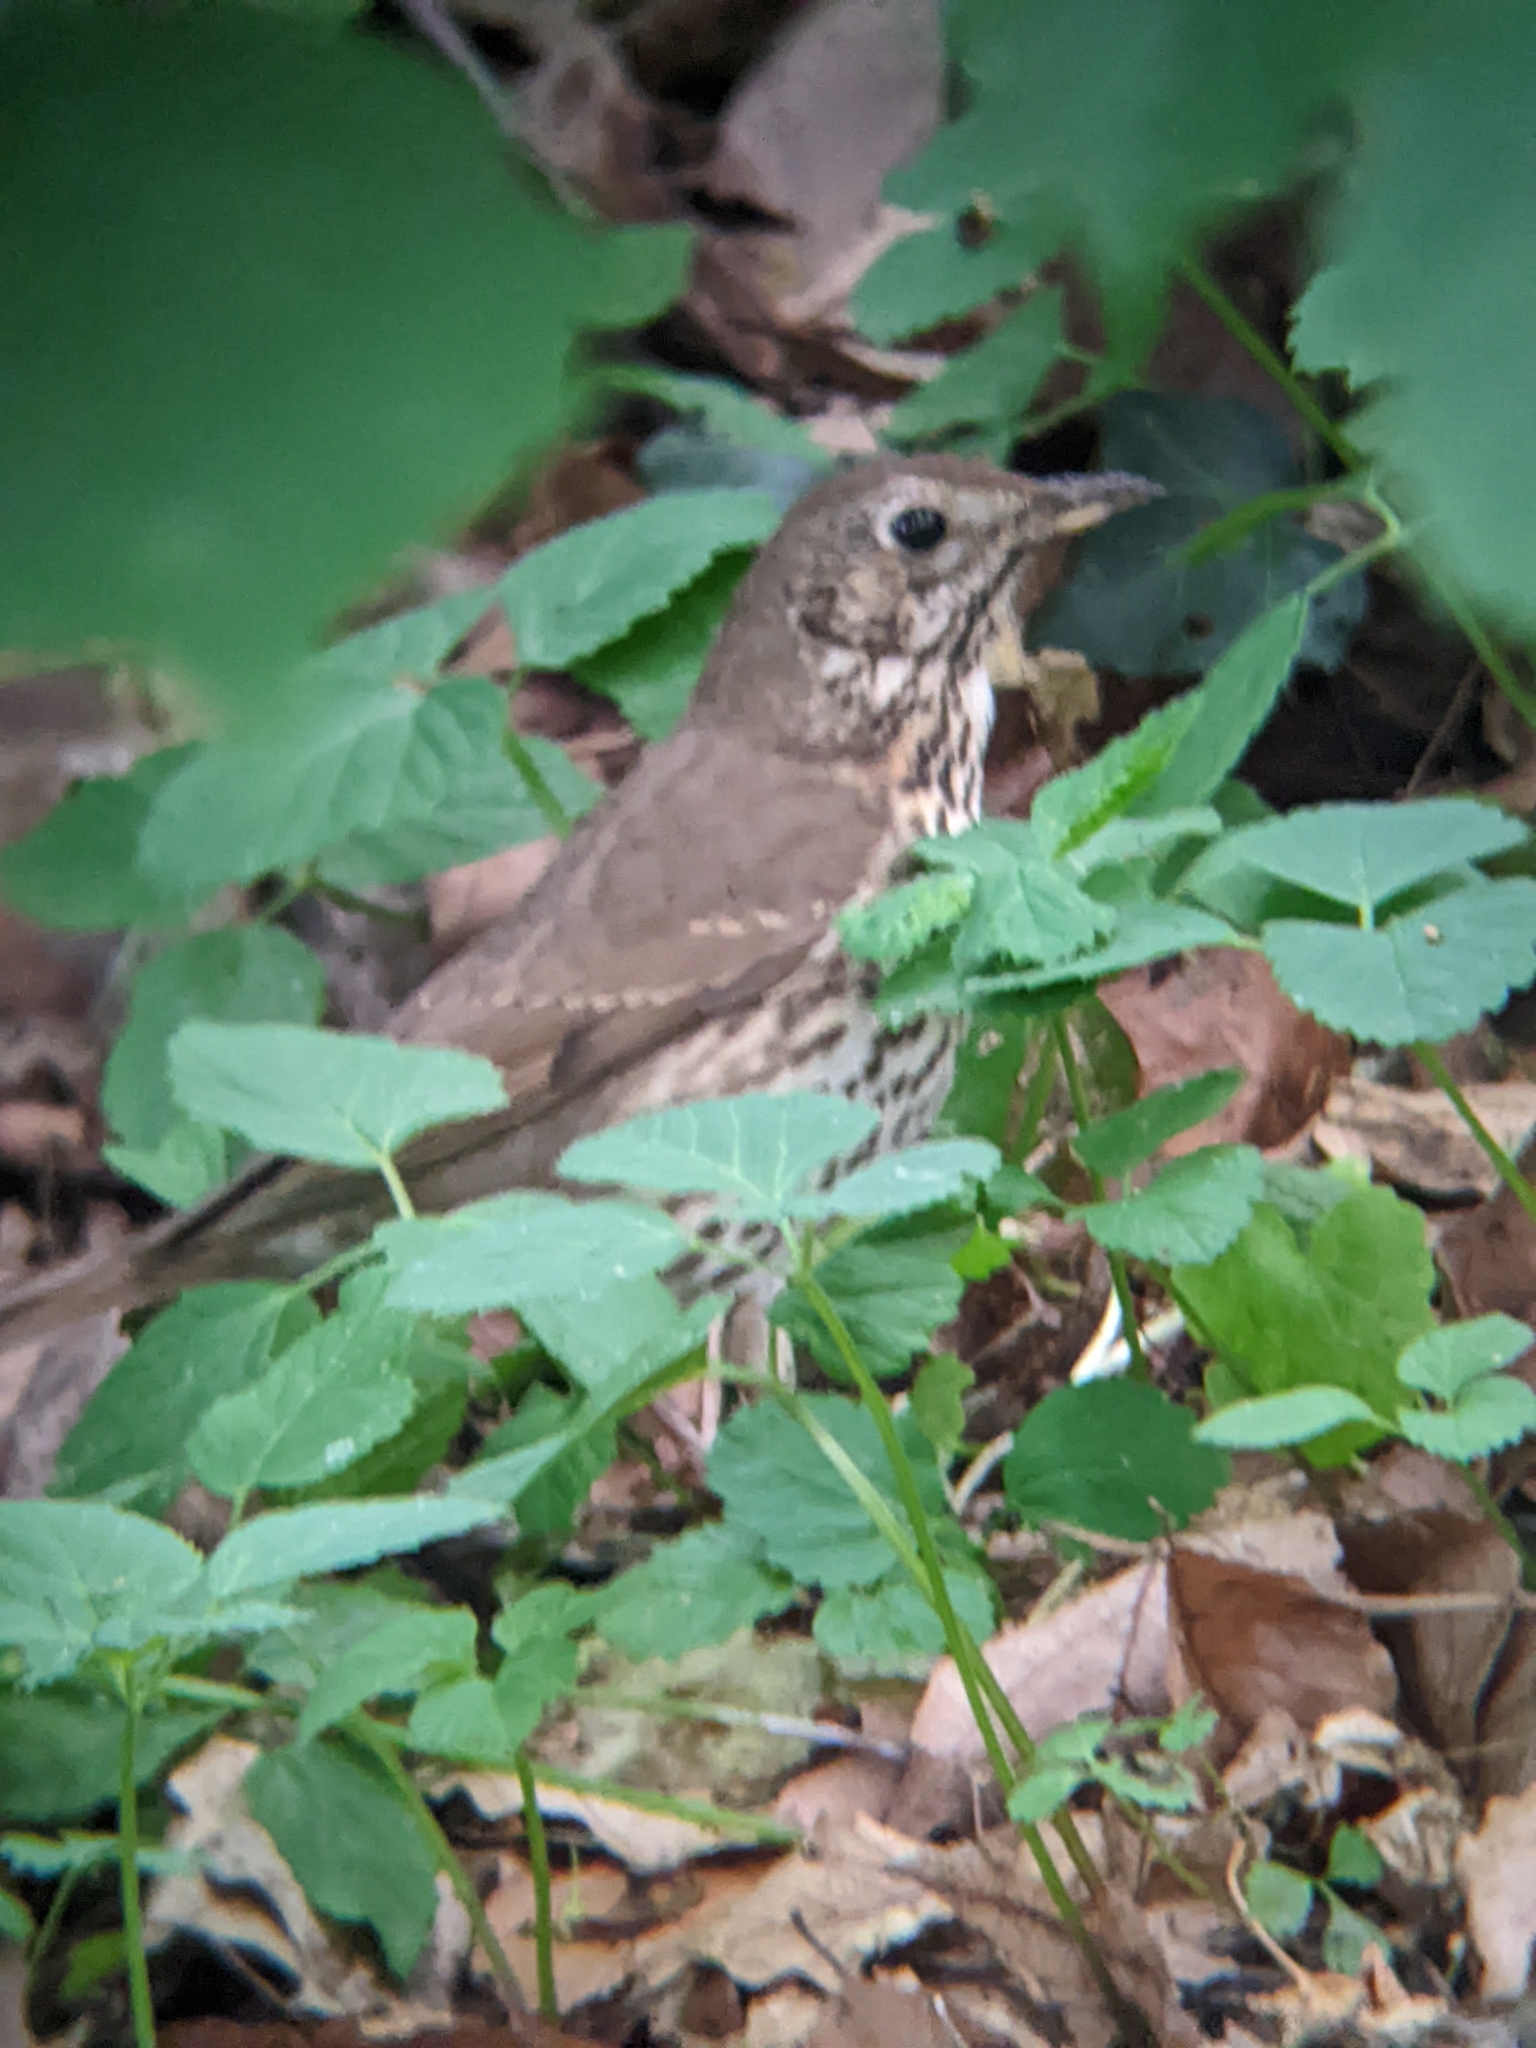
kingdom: Animalia
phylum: Chordata
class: Aves
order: Passeriformes
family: Turdidae
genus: Turdus
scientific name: Turdus philomelos
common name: Song thrush
